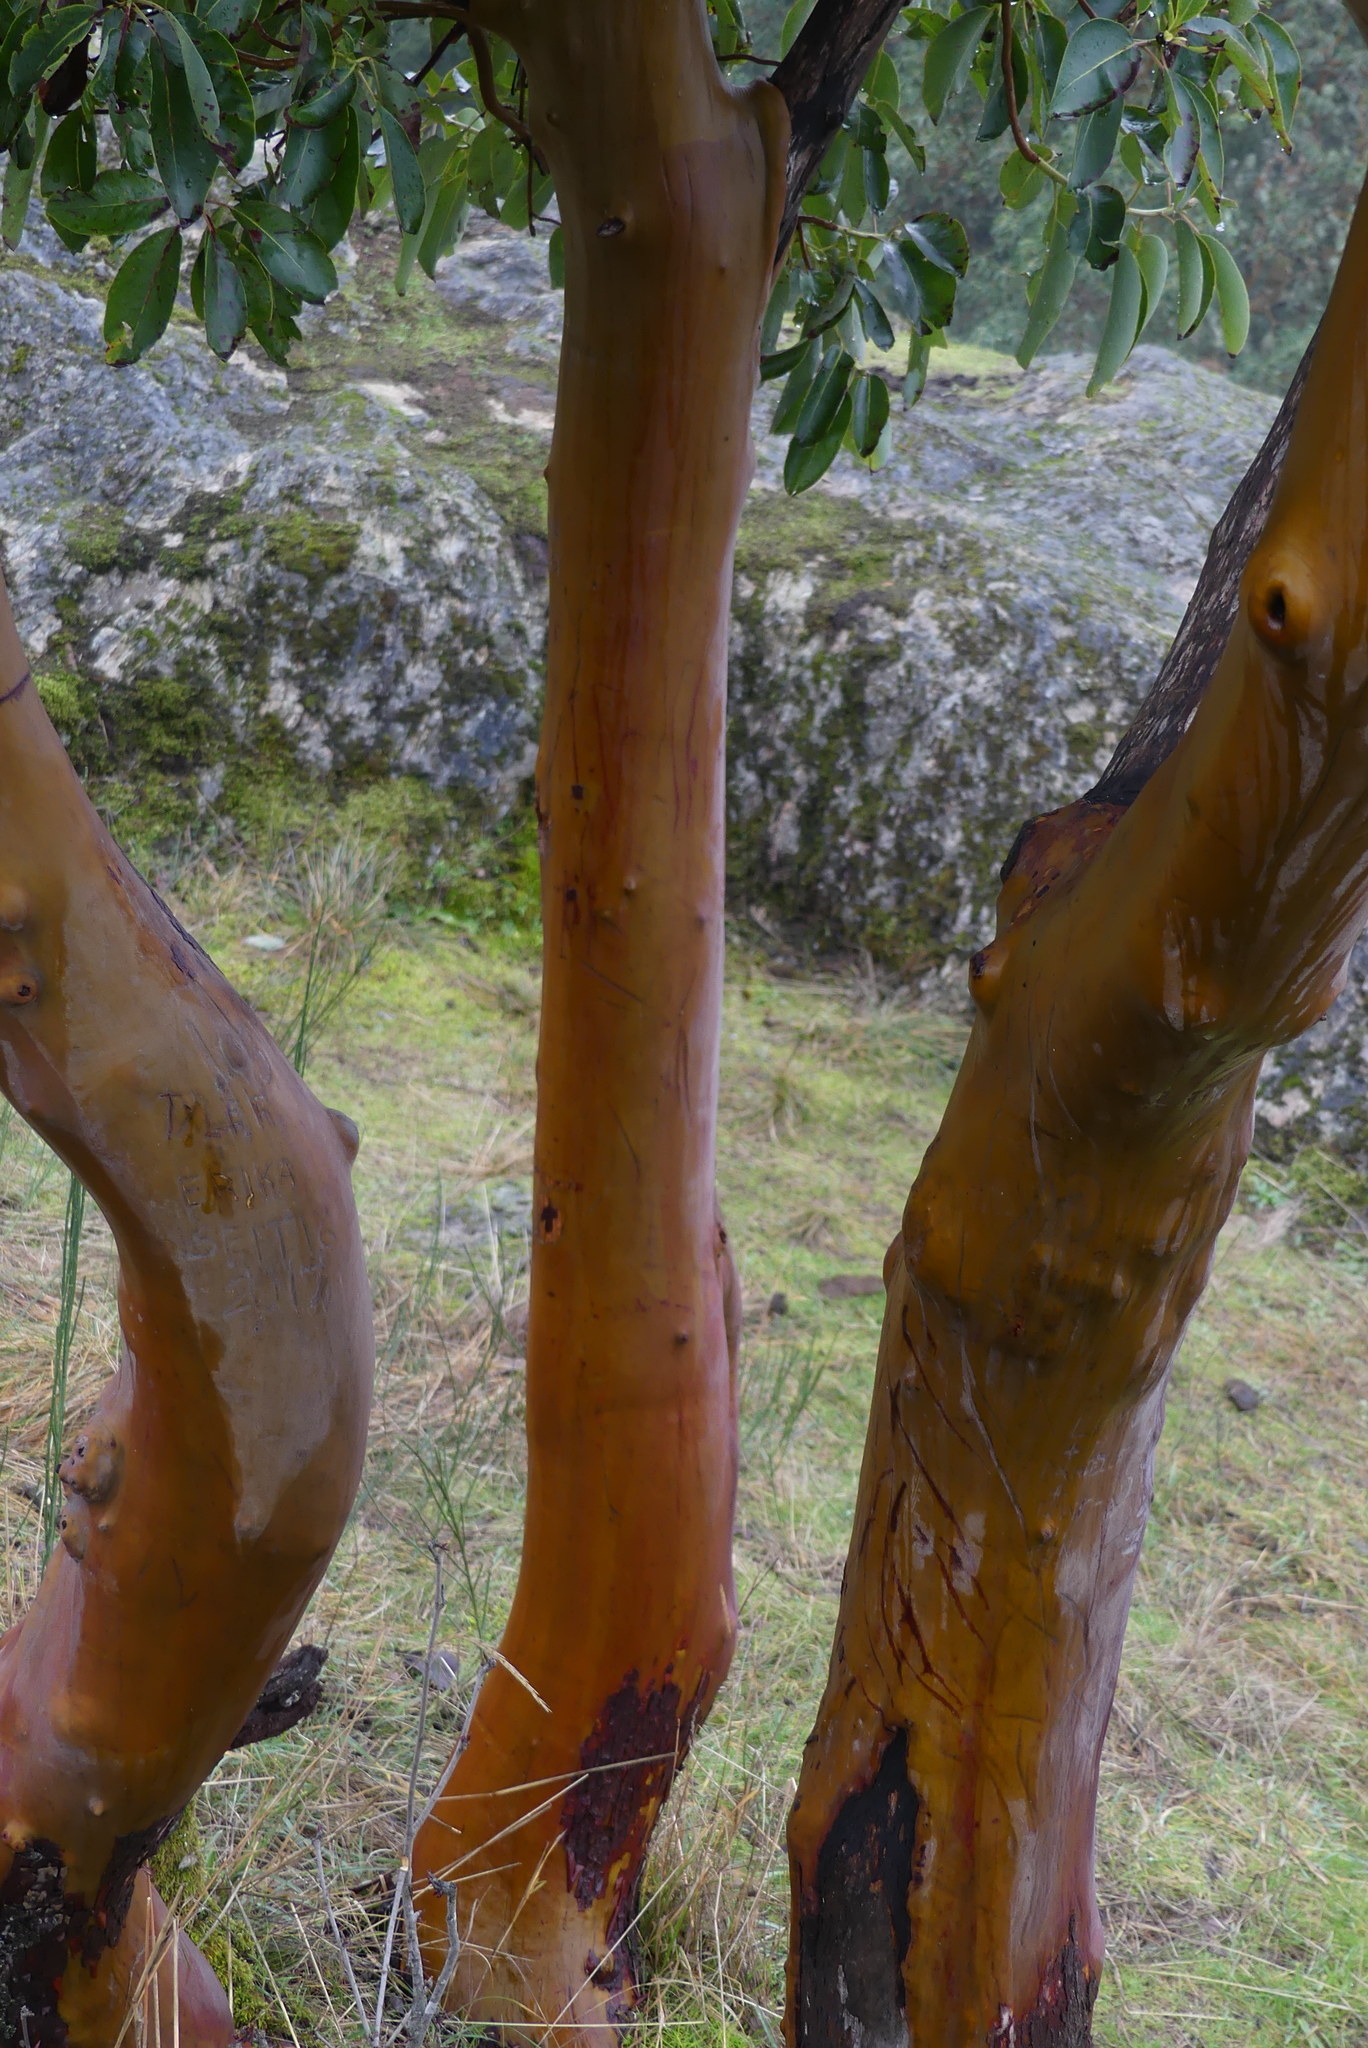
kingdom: Plantae
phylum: Tracheophyta
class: Magnoliopsida
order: Ericales
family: Ericaceae
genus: Arbutus
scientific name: Arbutus menziesii
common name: Pacific madrone
